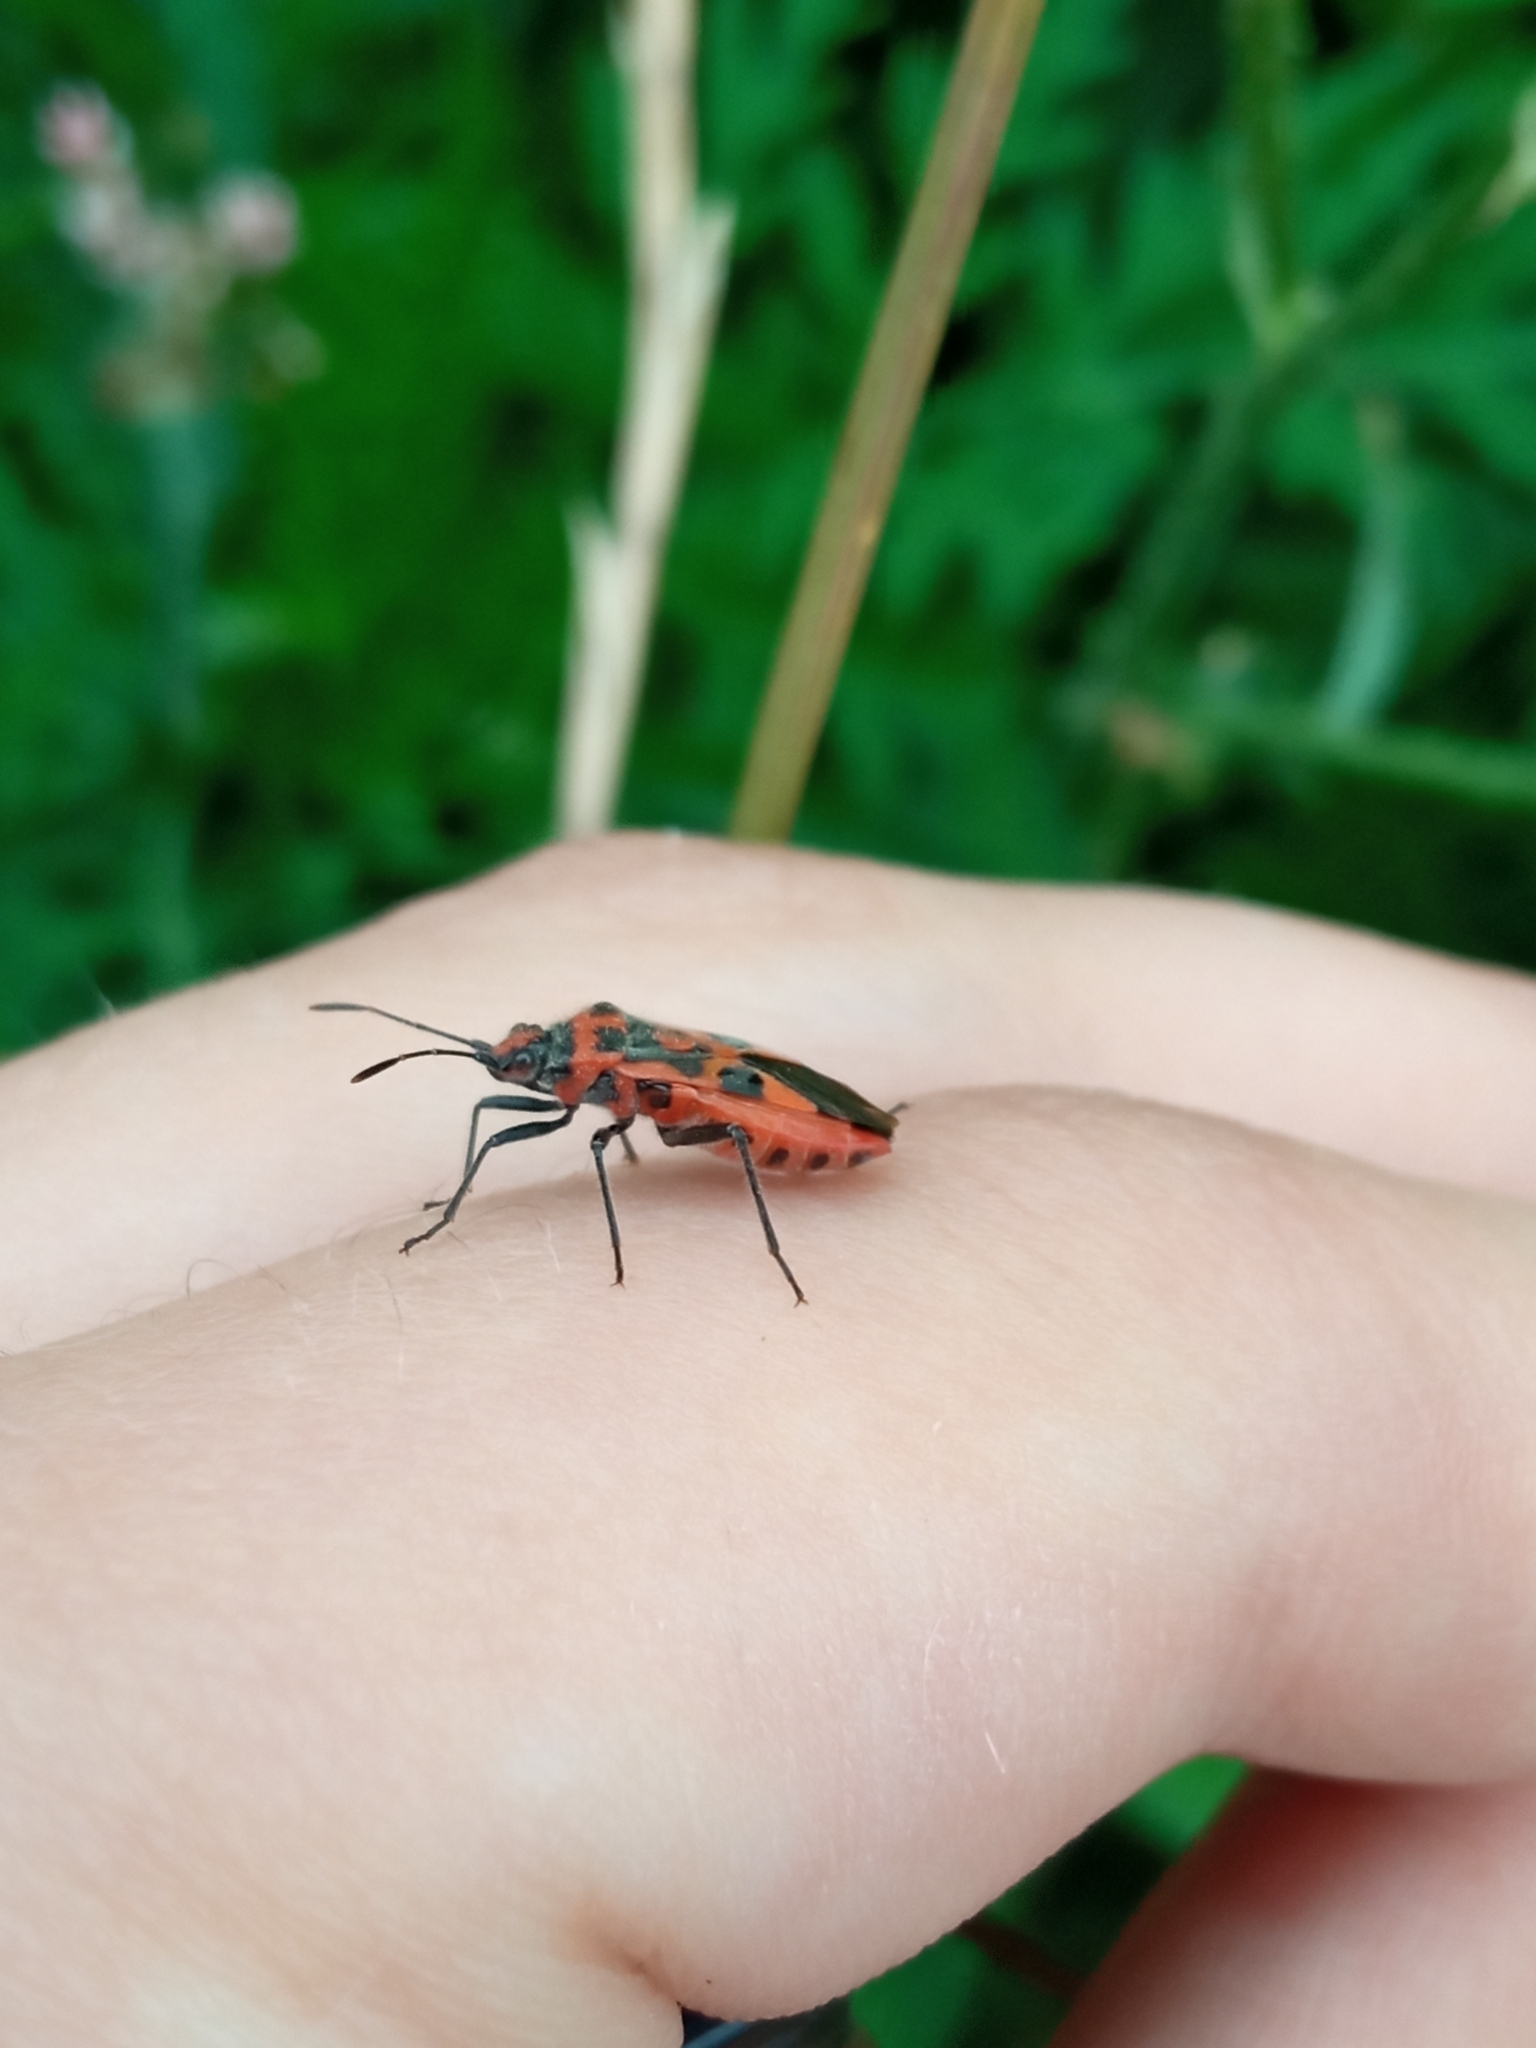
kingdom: Animalia
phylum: Arthropoda
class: Insecta
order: Hemiptera
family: Rhopalidae
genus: Corizus
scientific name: Corizus hyoscyami
